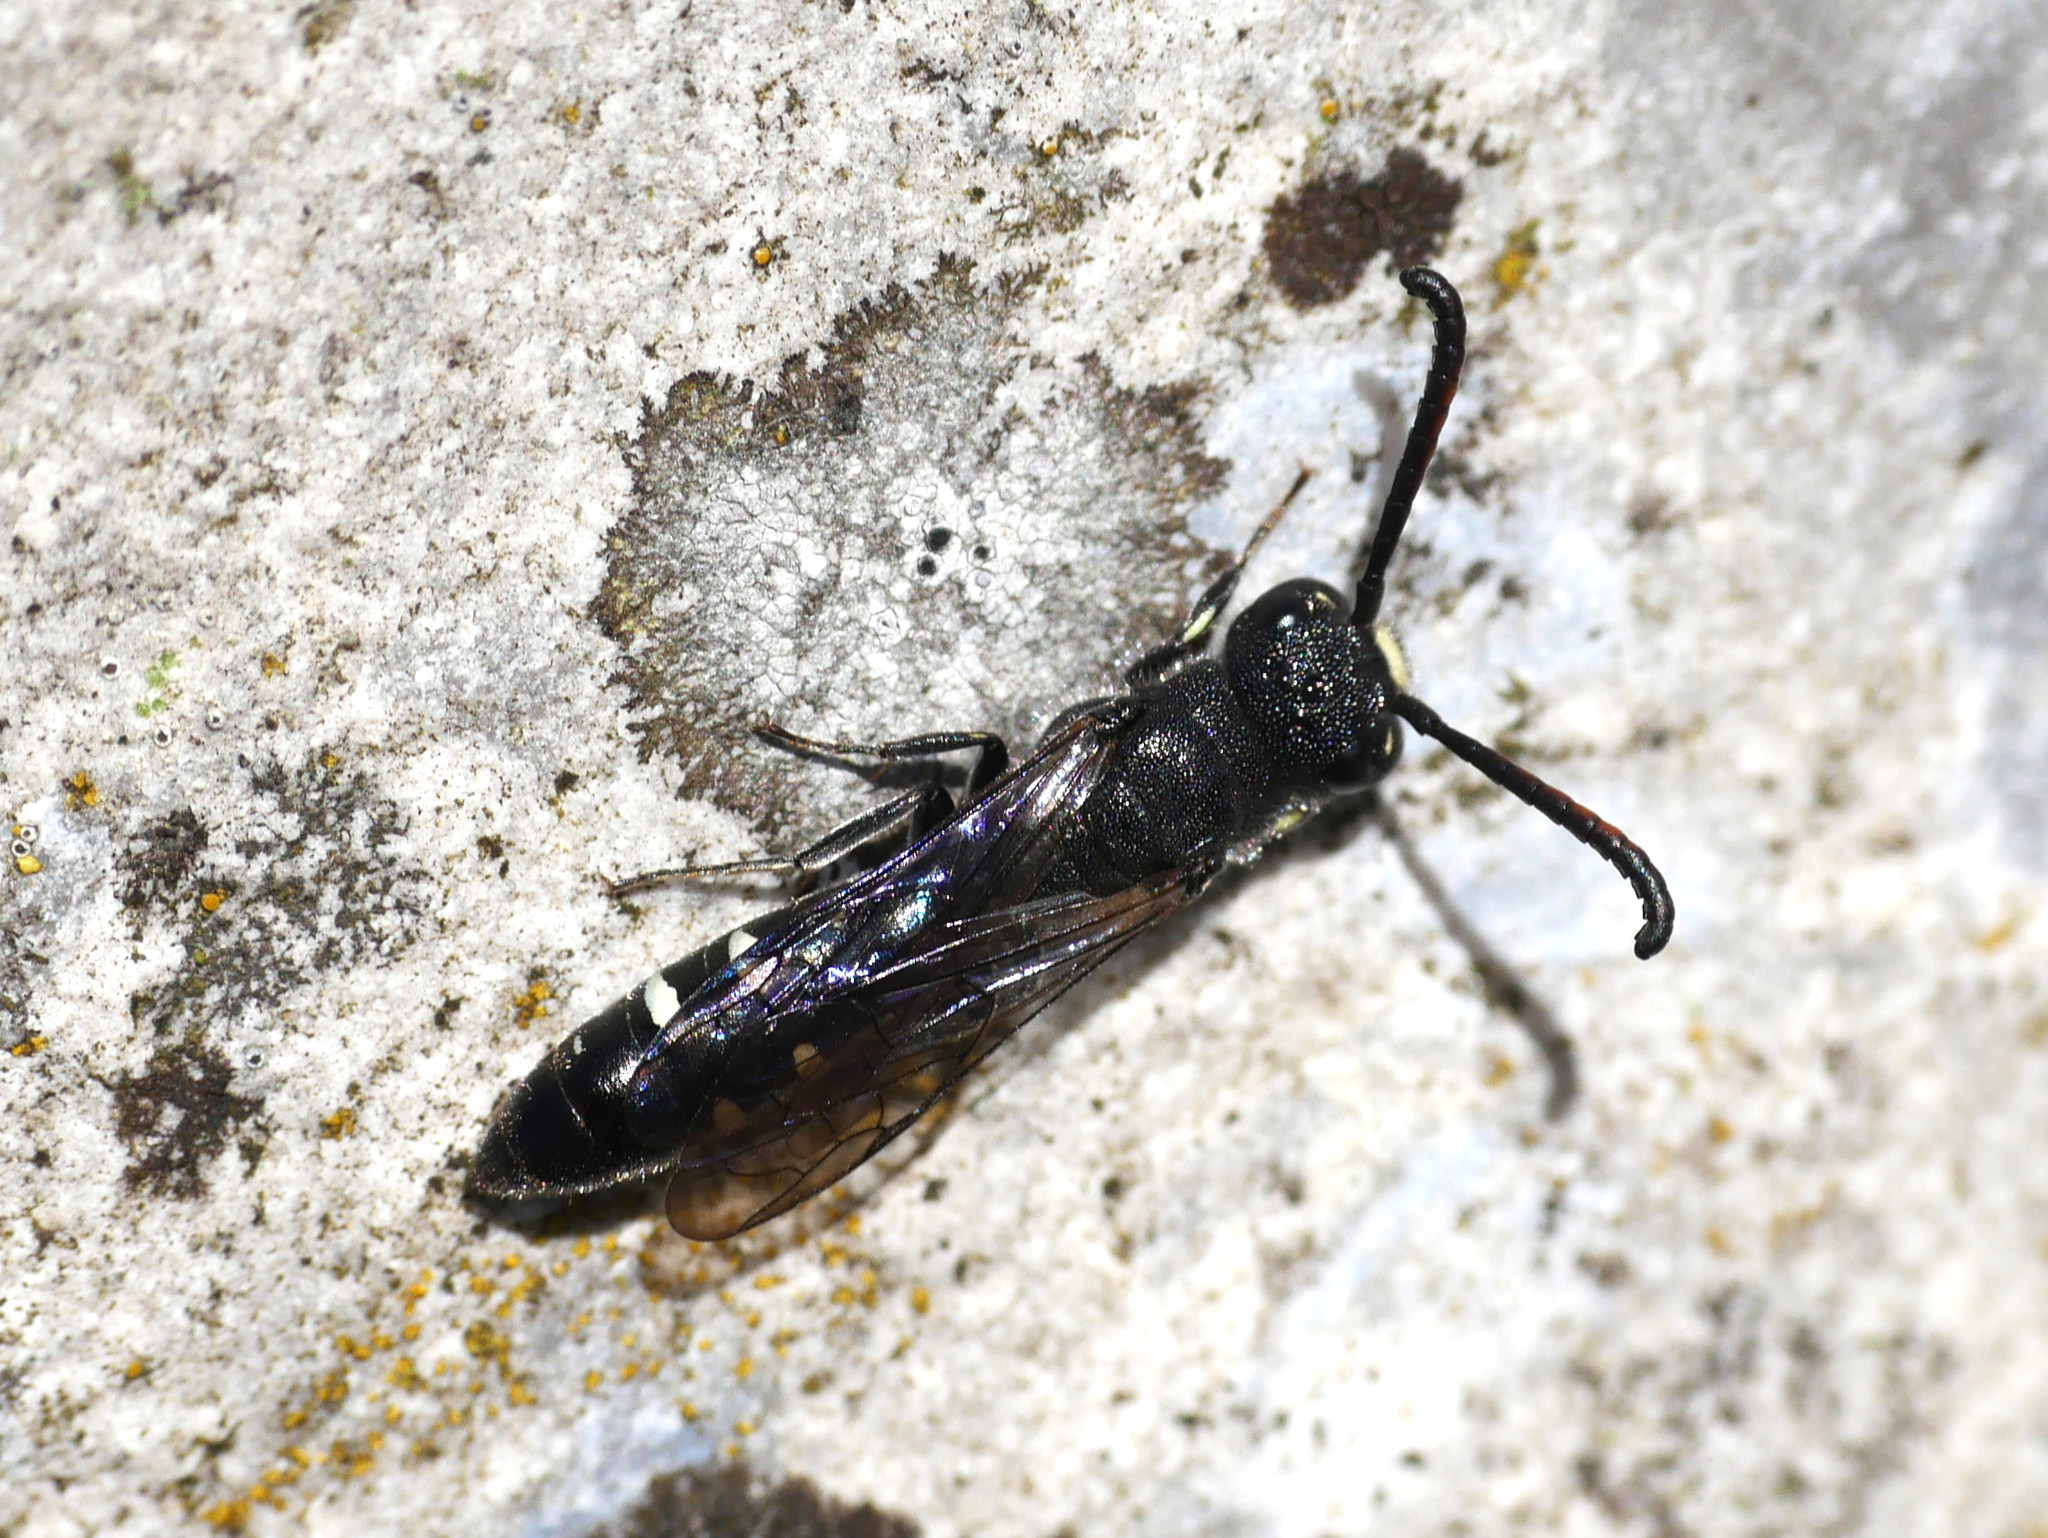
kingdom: Animalia
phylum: Arthropoda
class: Insecta
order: Hymenoptera
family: Sapygidae
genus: Sapyga
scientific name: Sapyga quinquepunctata
